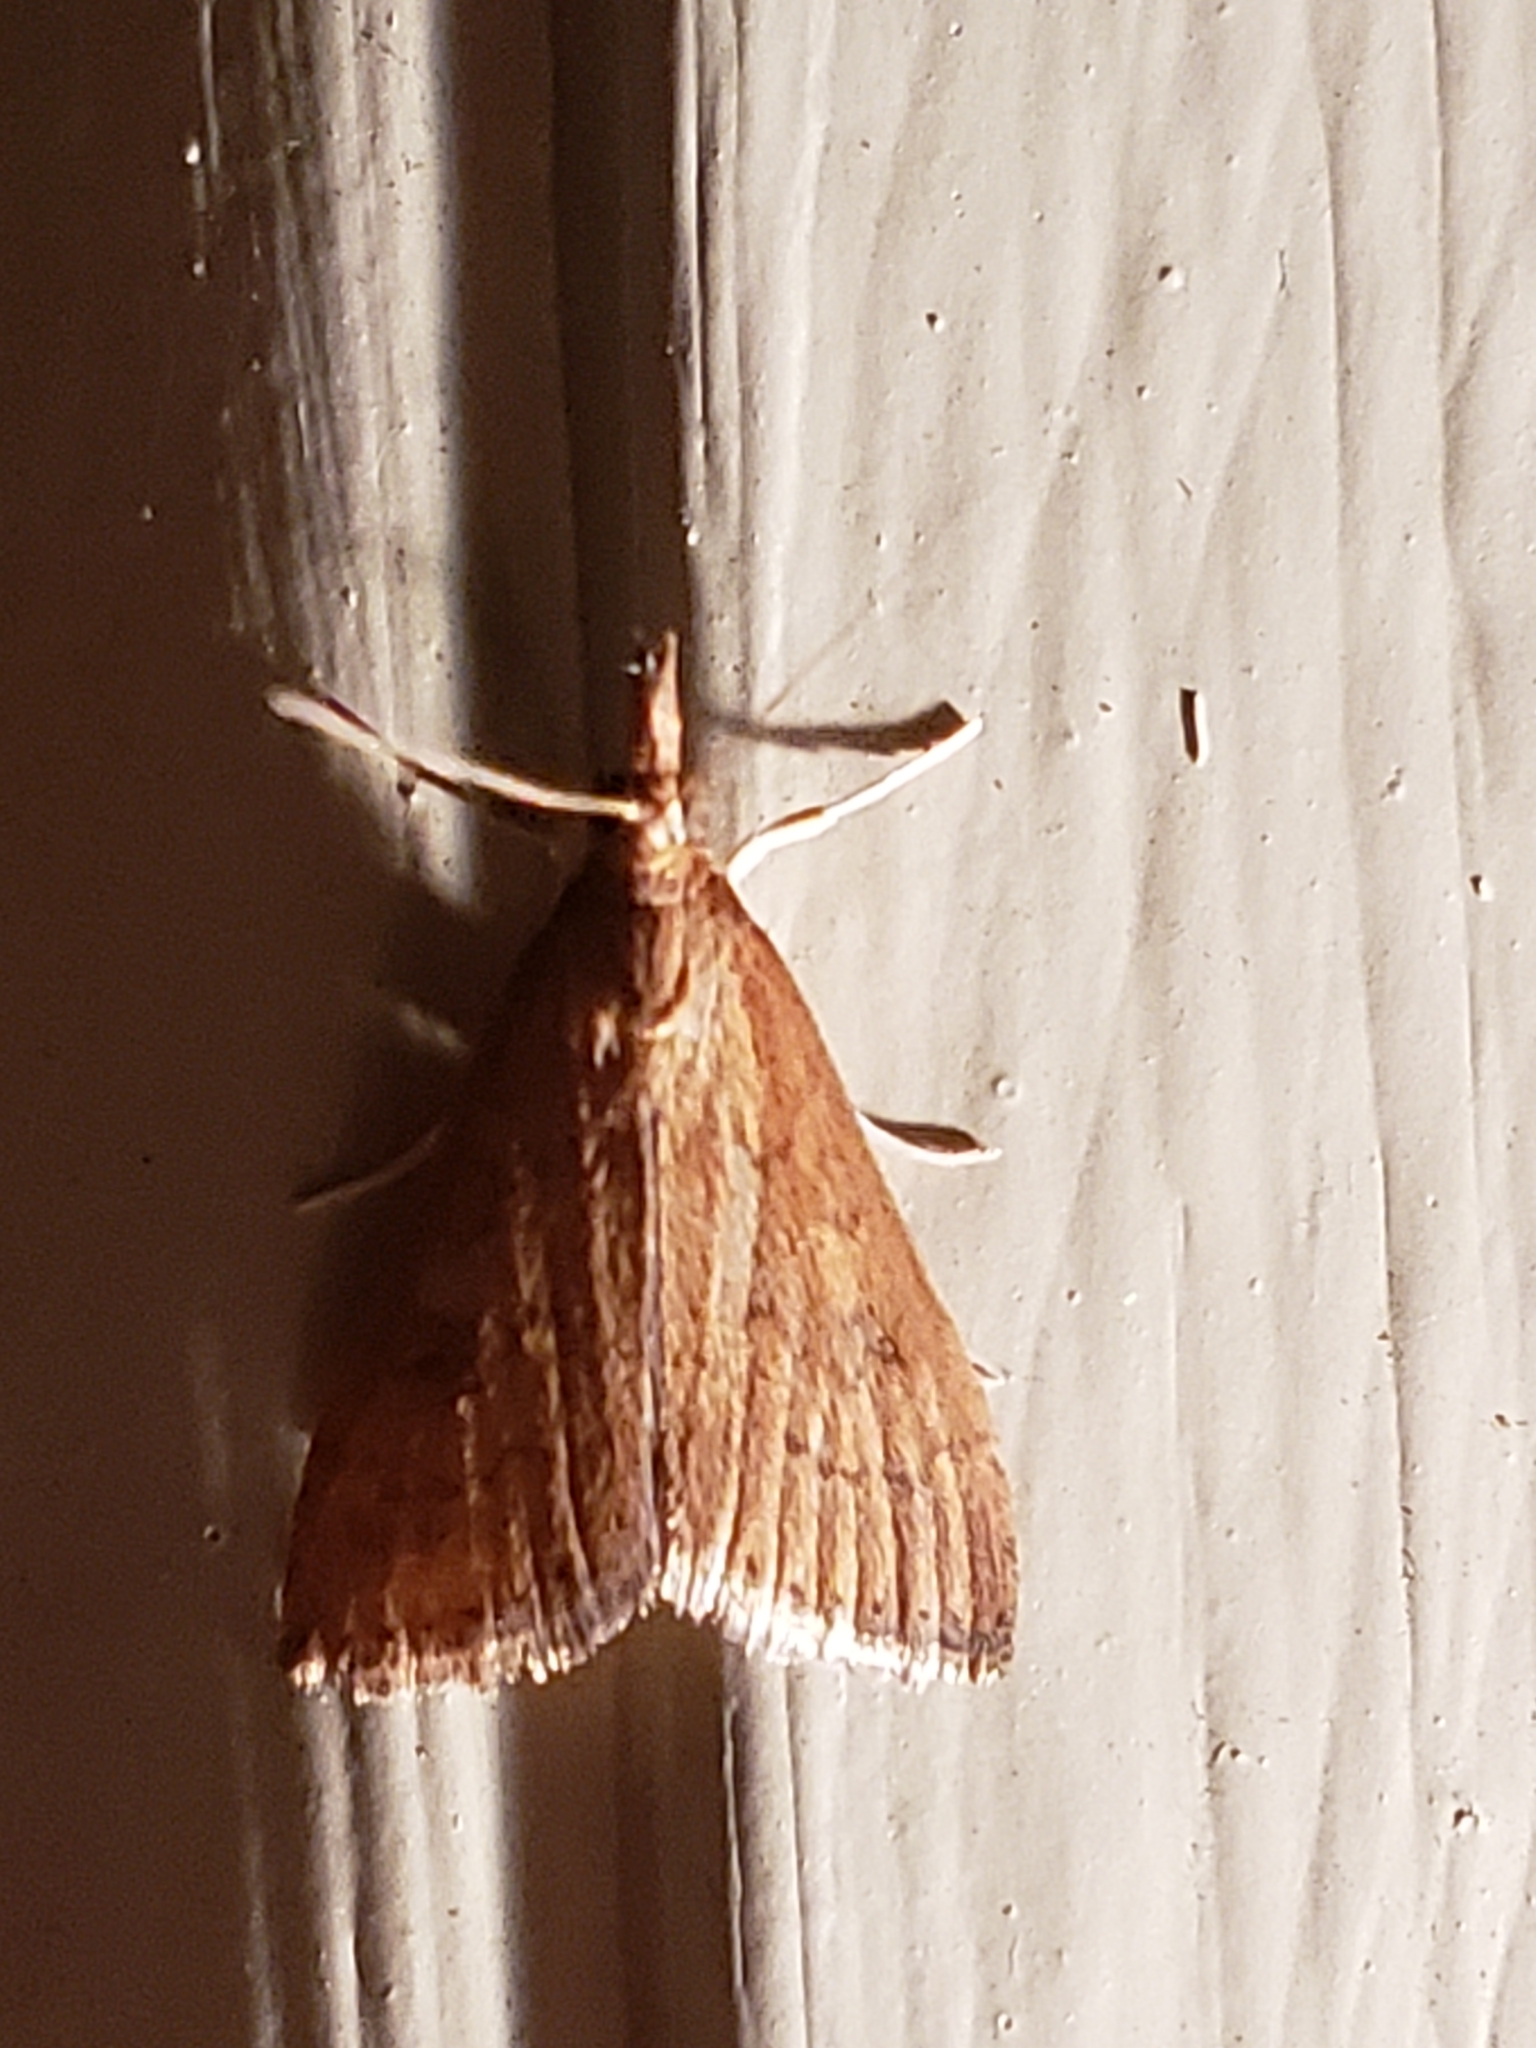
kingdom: Animalia
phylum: Arthropoda
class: Insecta
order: Lepidoptera
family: Crambidae
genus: Udea
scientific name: Udea rubigalis
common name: Celery leaftier moth
